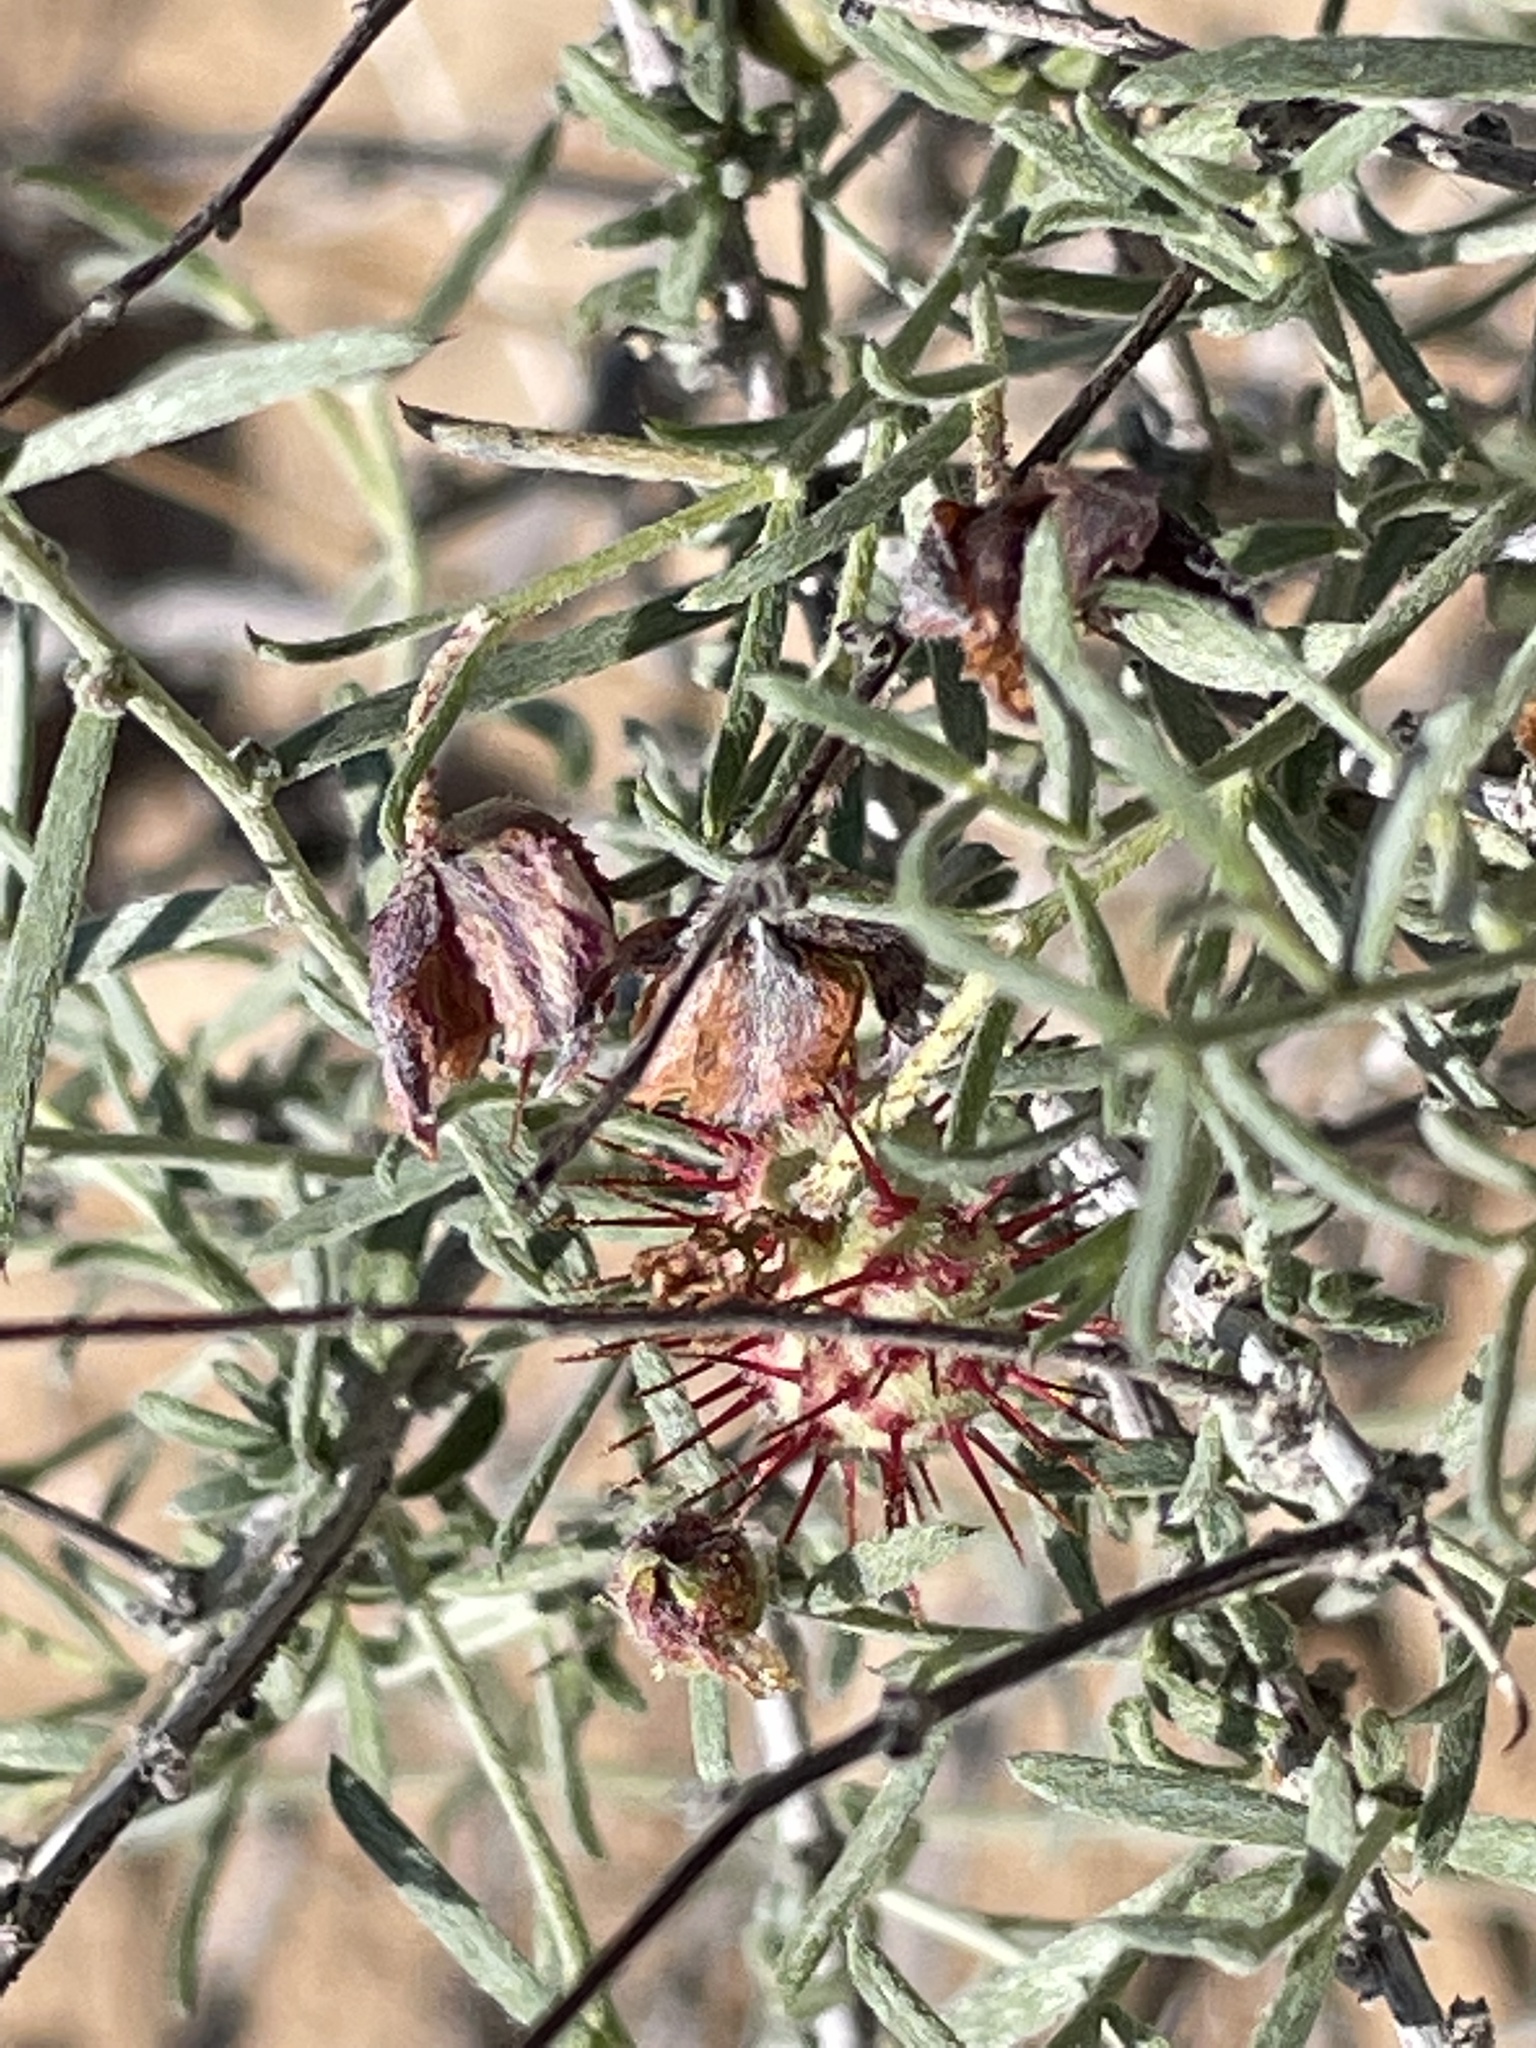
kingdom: Plantae
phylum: Tracheophyta
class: Magnoliopsida
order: Zygophyllales
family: Krameriaceae
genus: Krameria
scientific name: Krameria erecta
